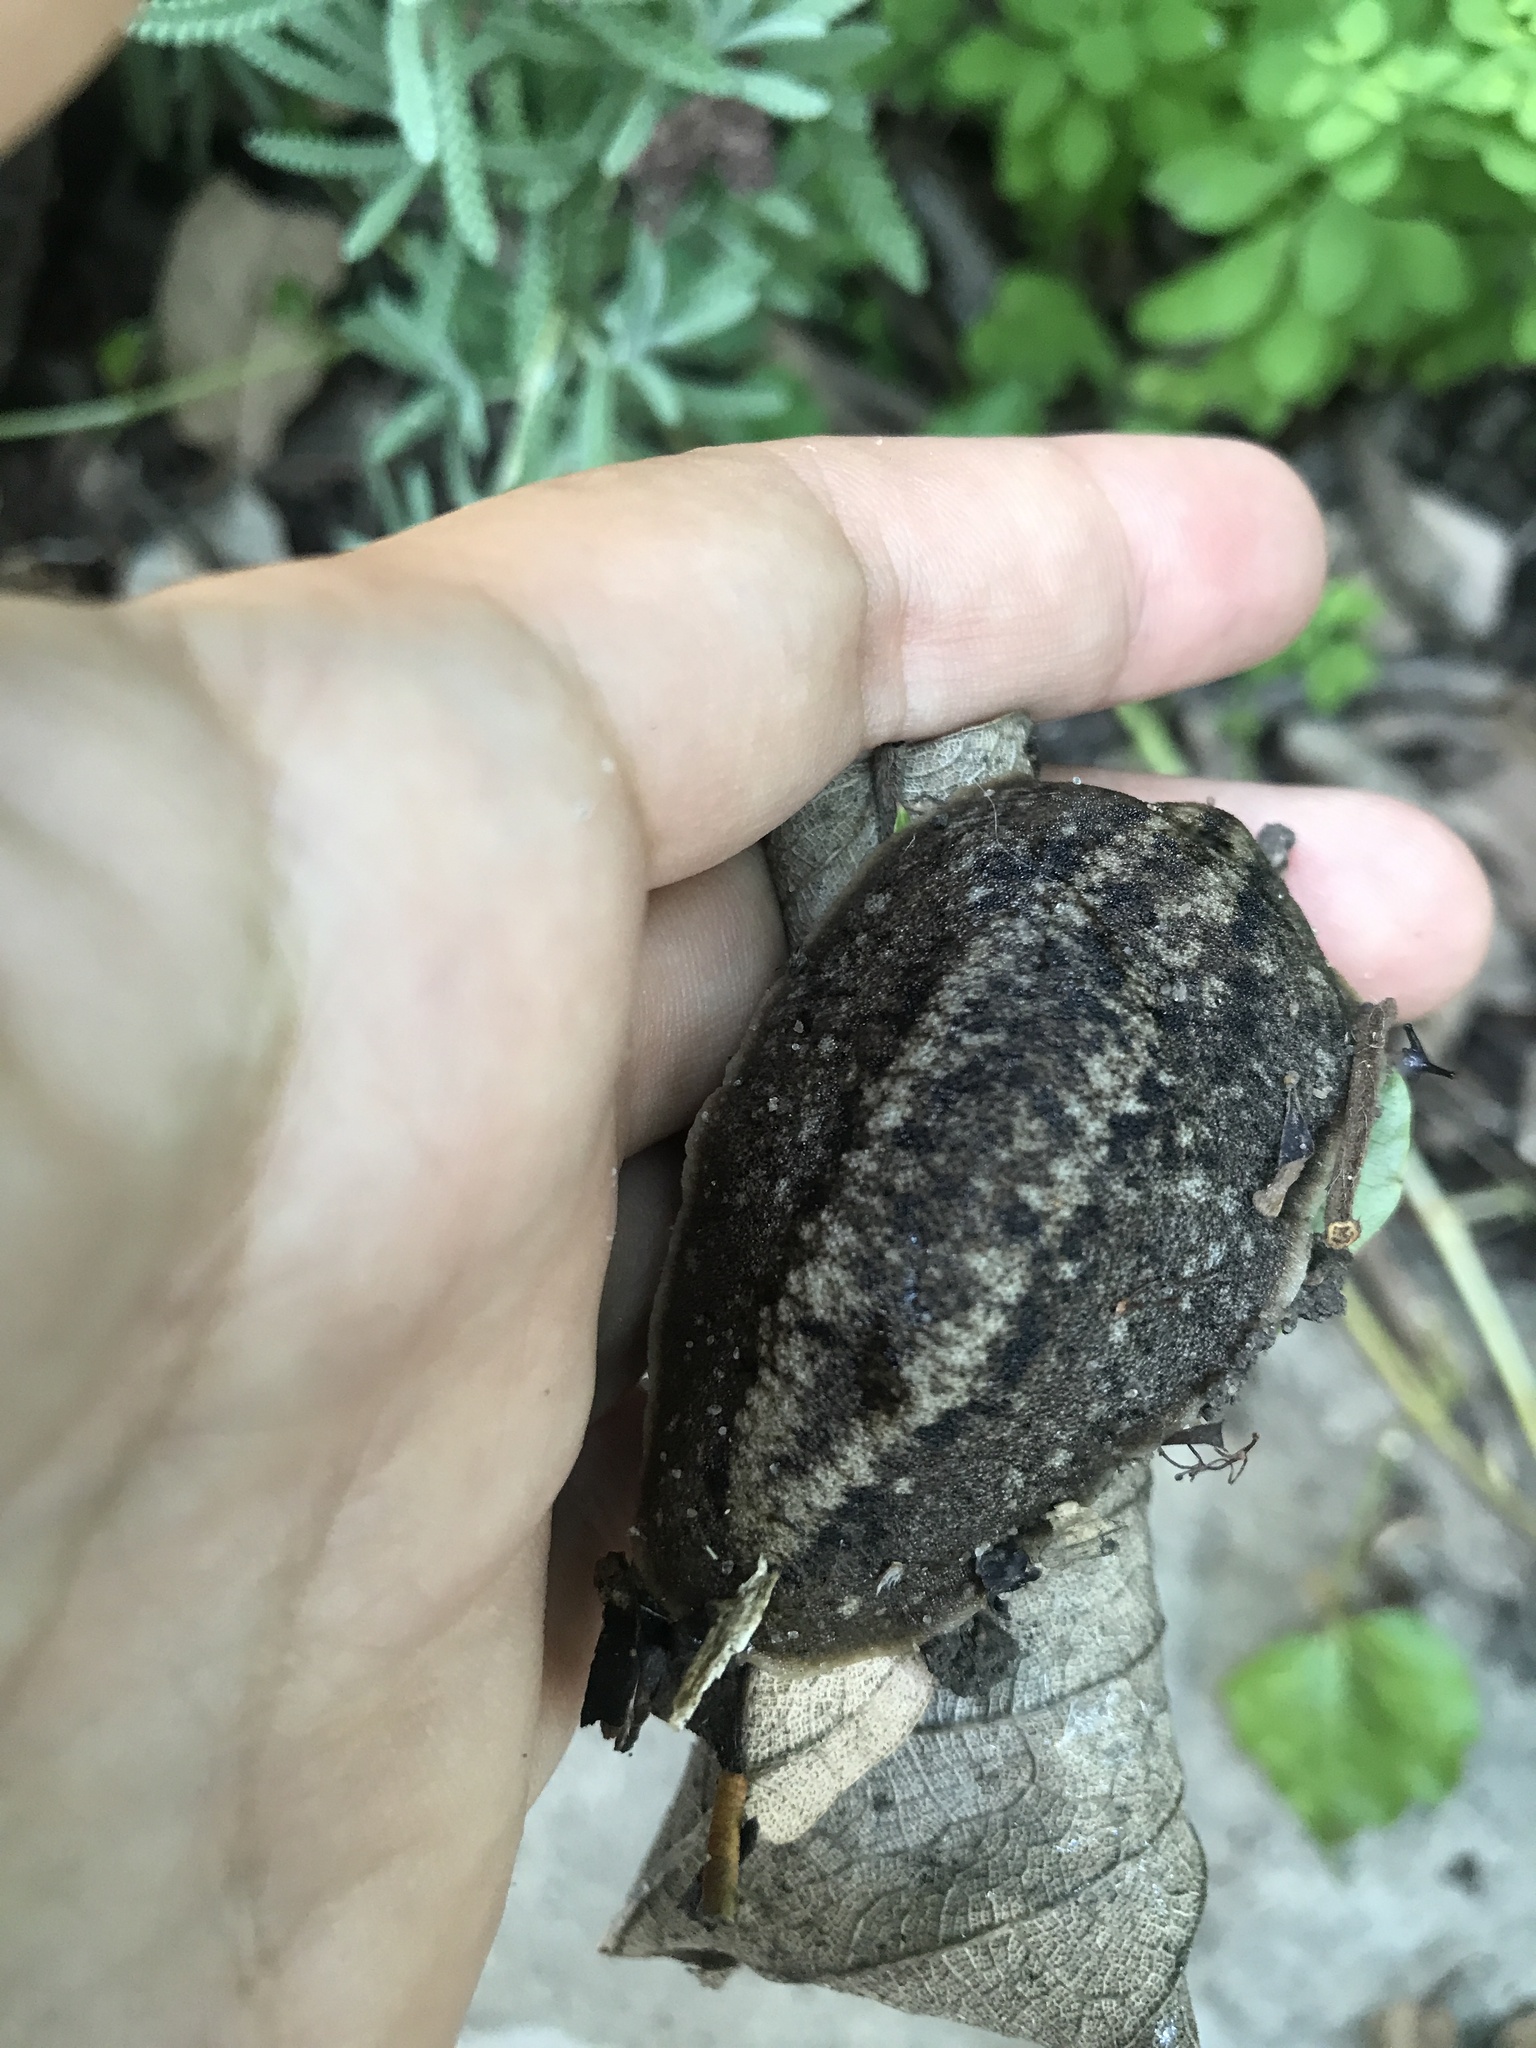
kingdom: Animalia
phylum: Mollusca
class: Gastropoda
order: Systellommatophora
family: Veronicellidae
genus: Phyllocaulis
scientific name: Phyllocaulis soleiformis
